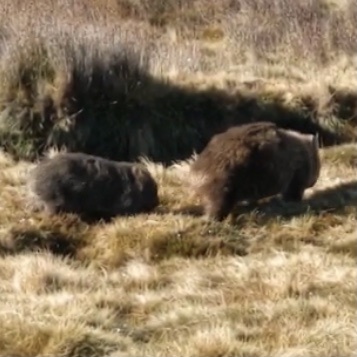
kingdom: Animalia
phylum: Chordata
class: Mammalia
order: Diprotodontia
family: Vombatidae
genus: Vombatus
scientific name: Vombatus ursinus
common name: Common wombat
